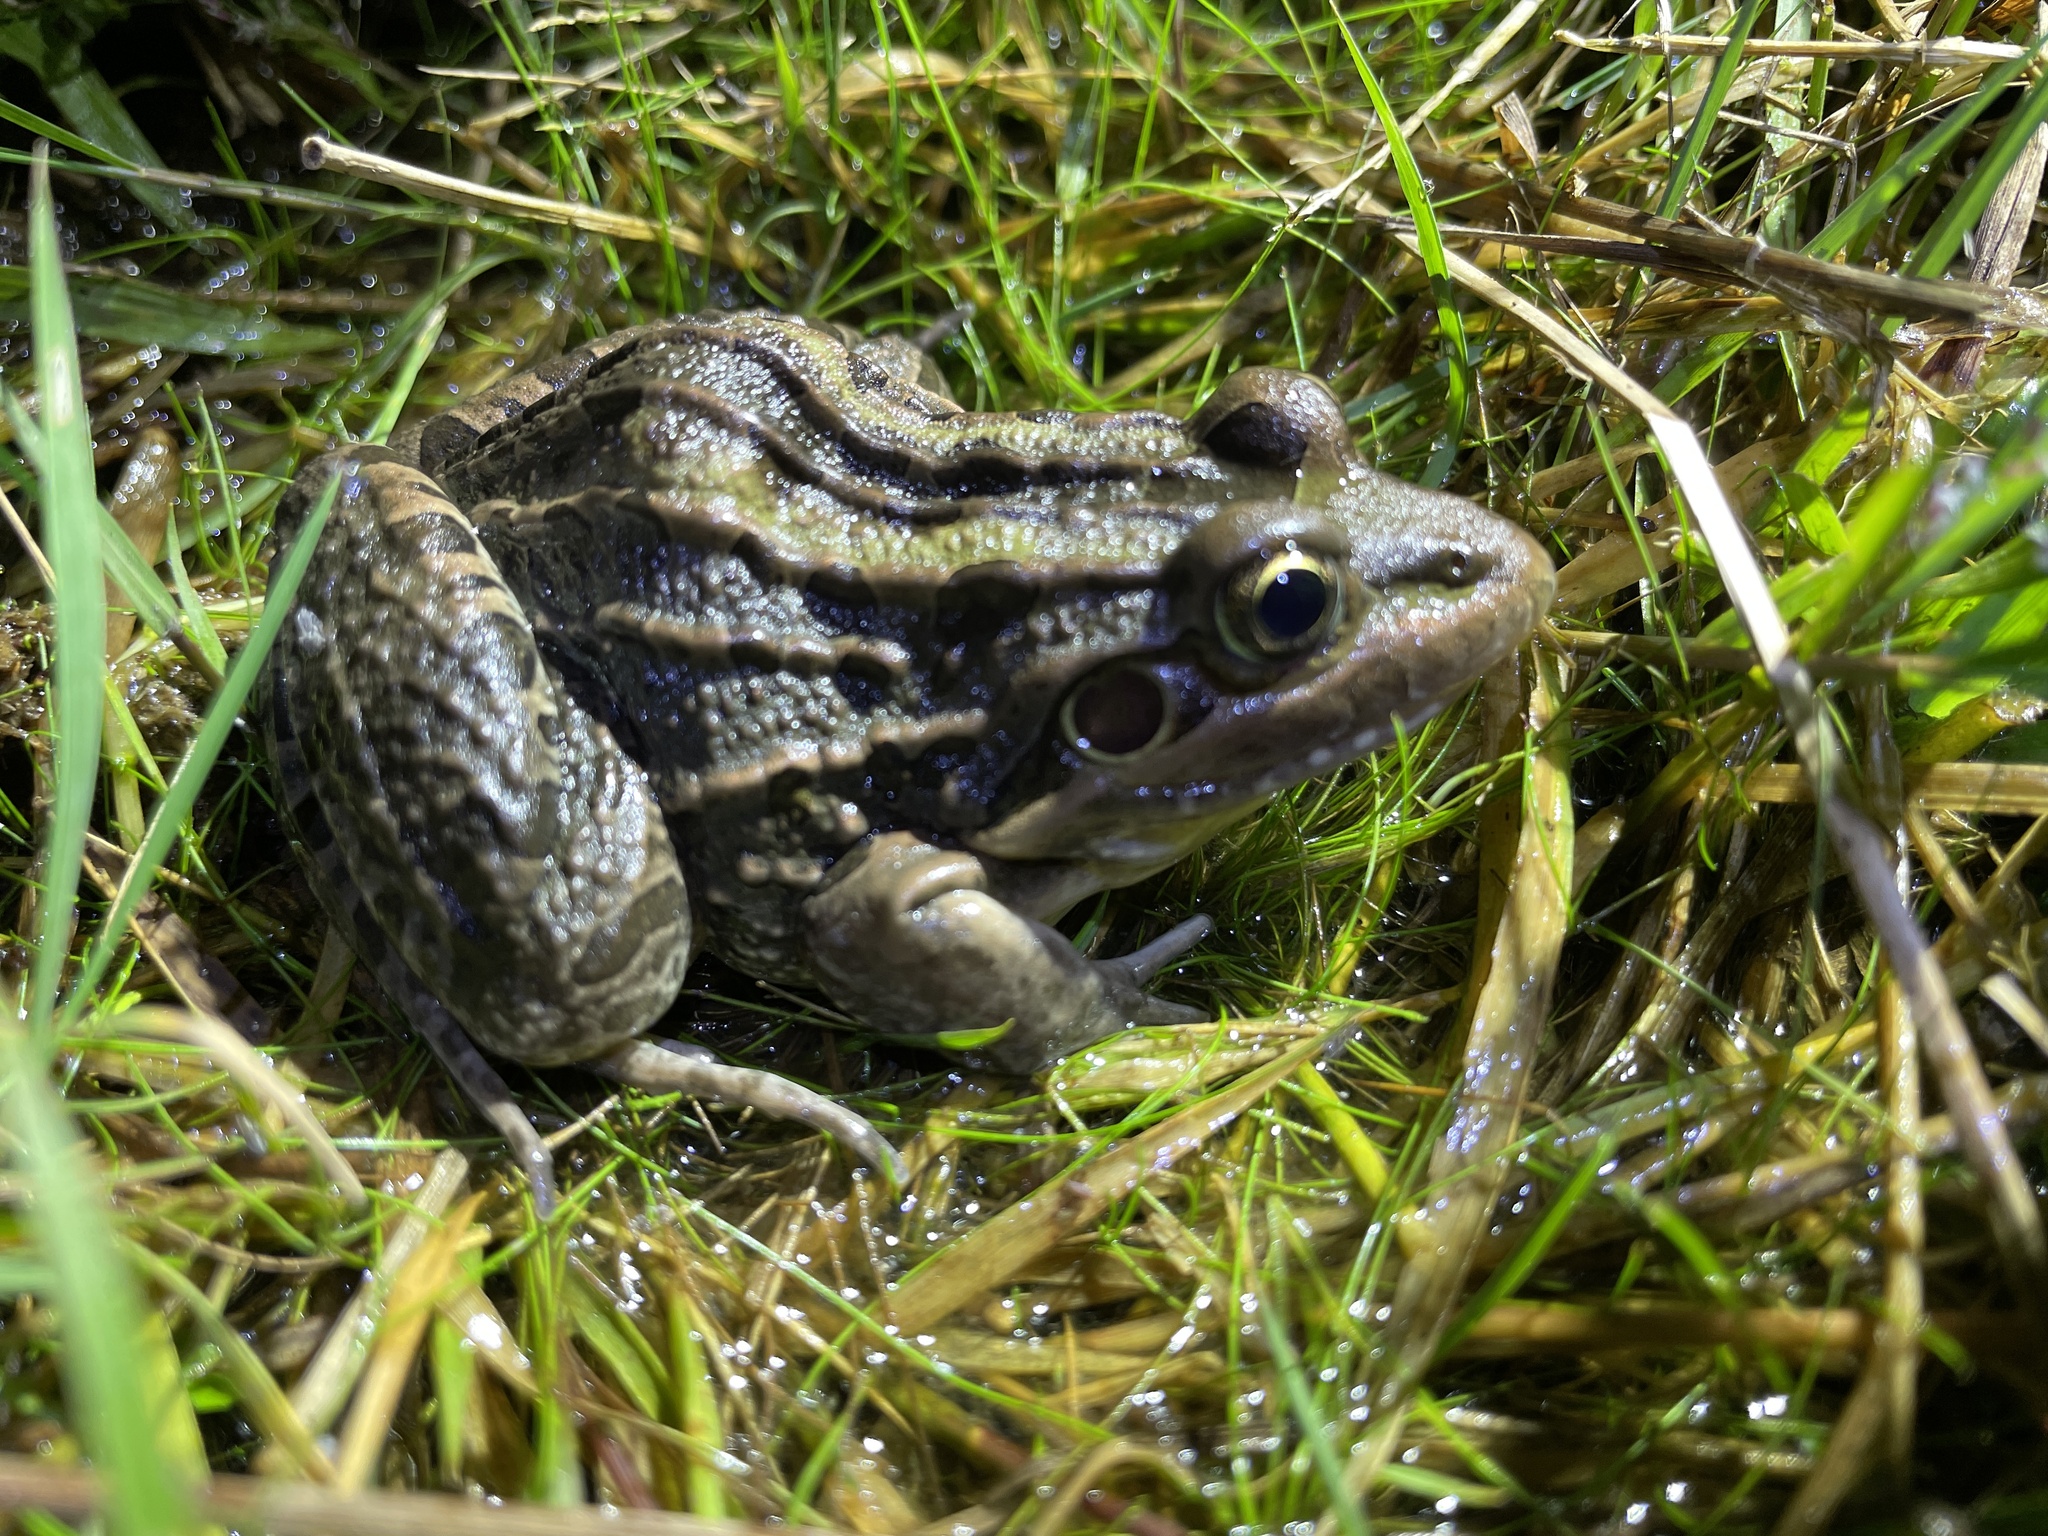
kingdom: Animalia
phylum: Chordata
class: Amphibia
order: Anura
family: Leptodactylidae
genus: Leptodactylus
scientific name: Leptodactylus luctator
